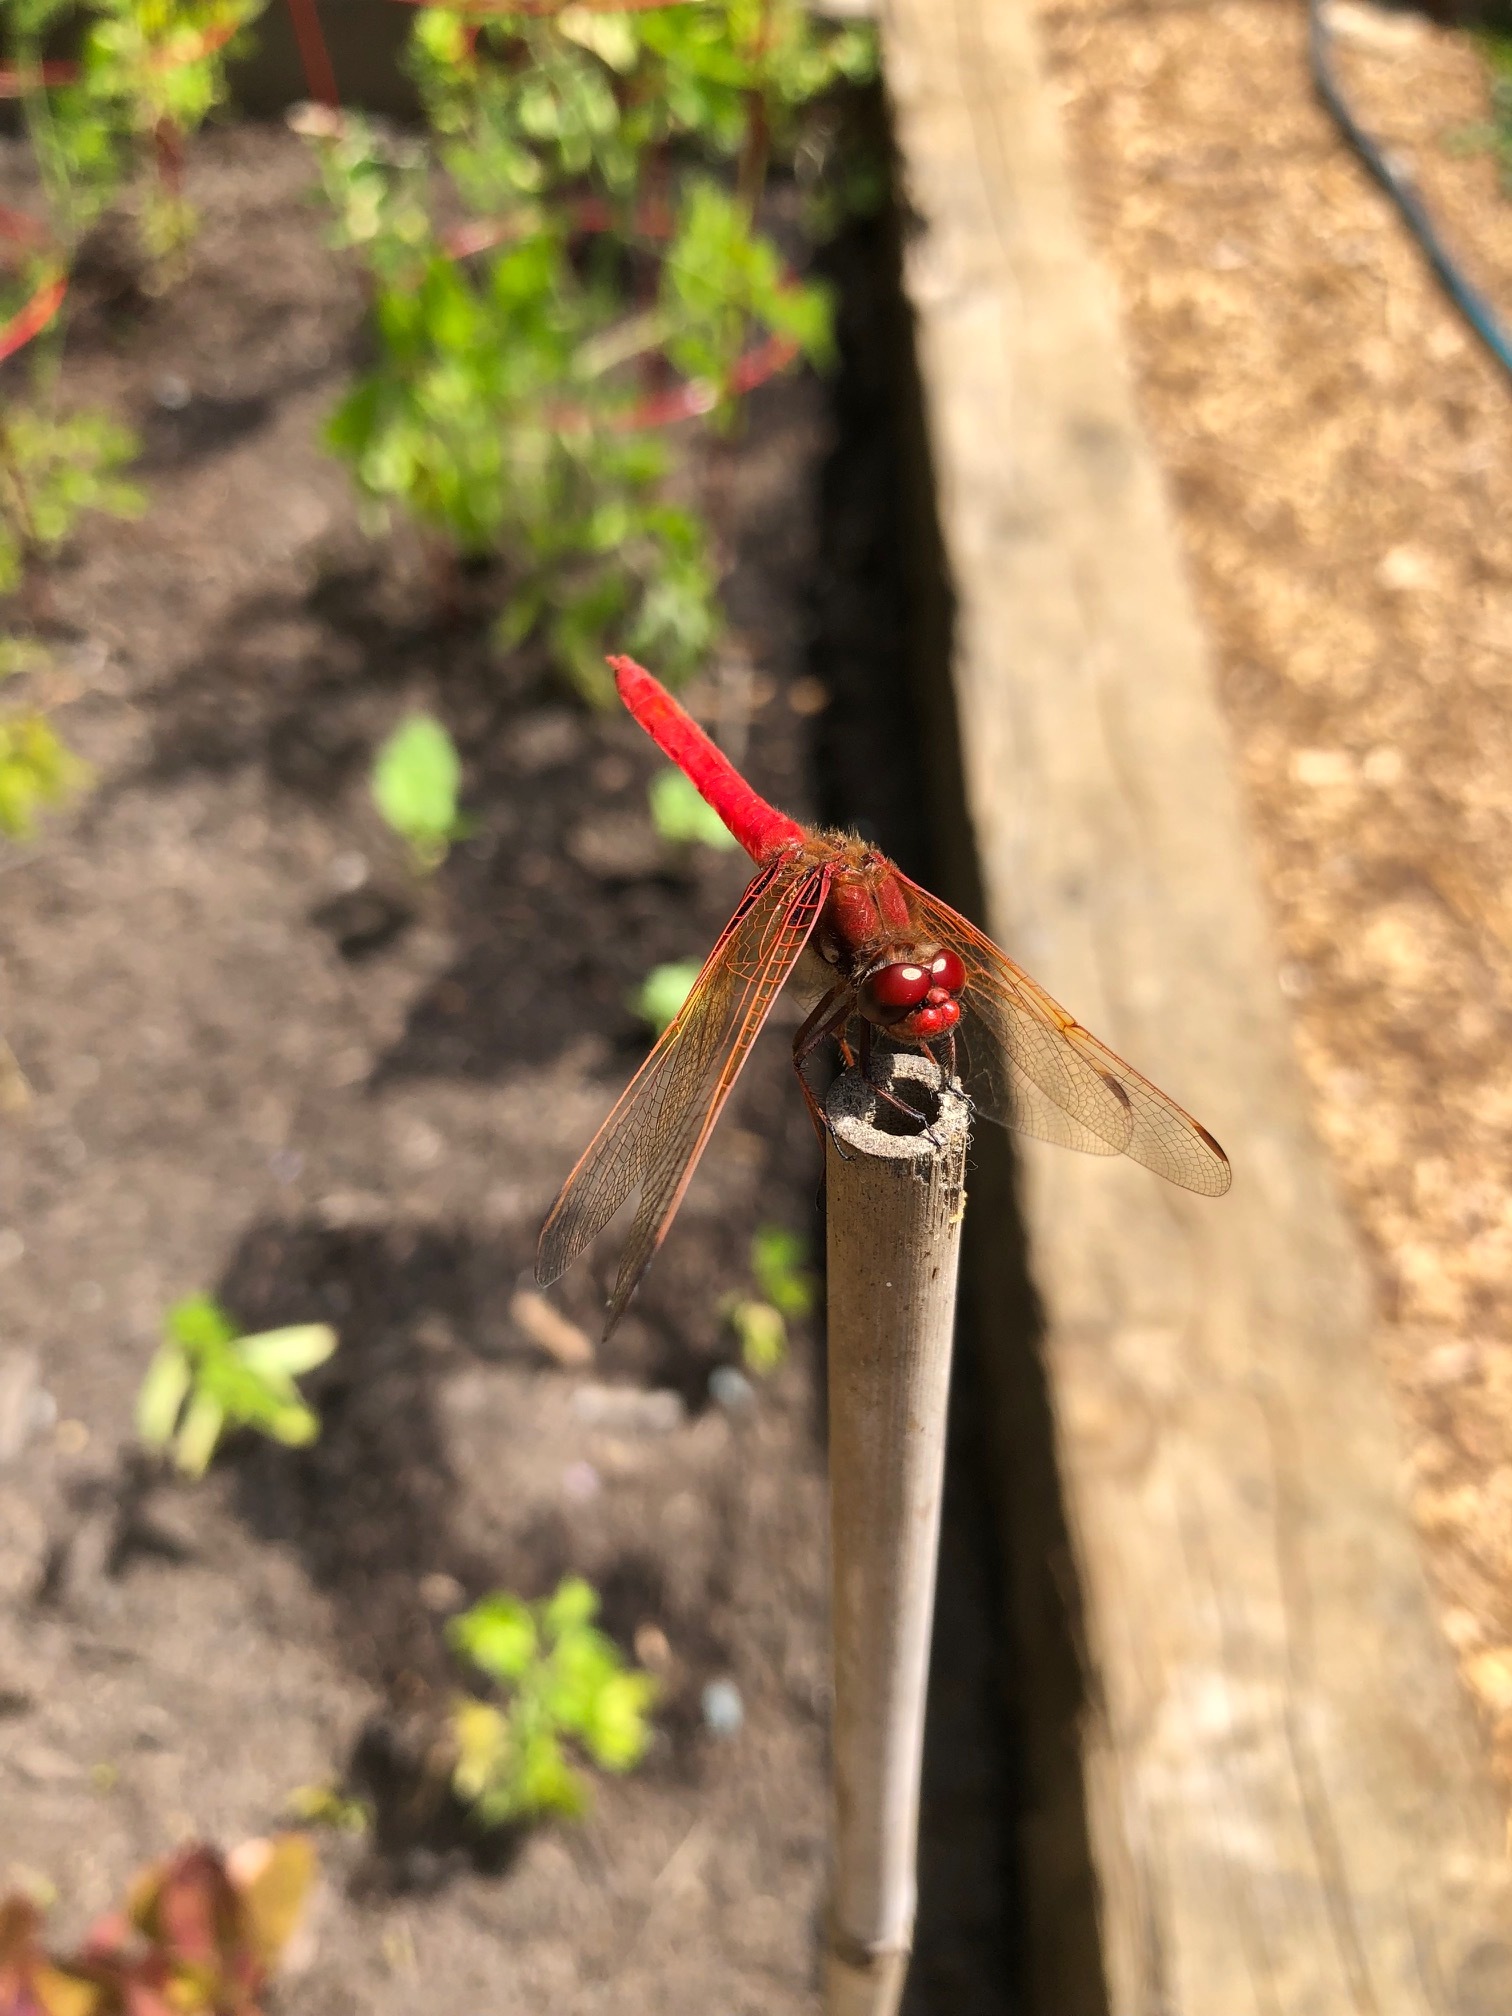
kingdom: Animalia
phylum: Arthropoda
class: Insecta
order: Odonata
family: Libellulidae
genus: Sympetrum
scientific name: Sympetrum illotum
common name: Cardinal meadowhawk
